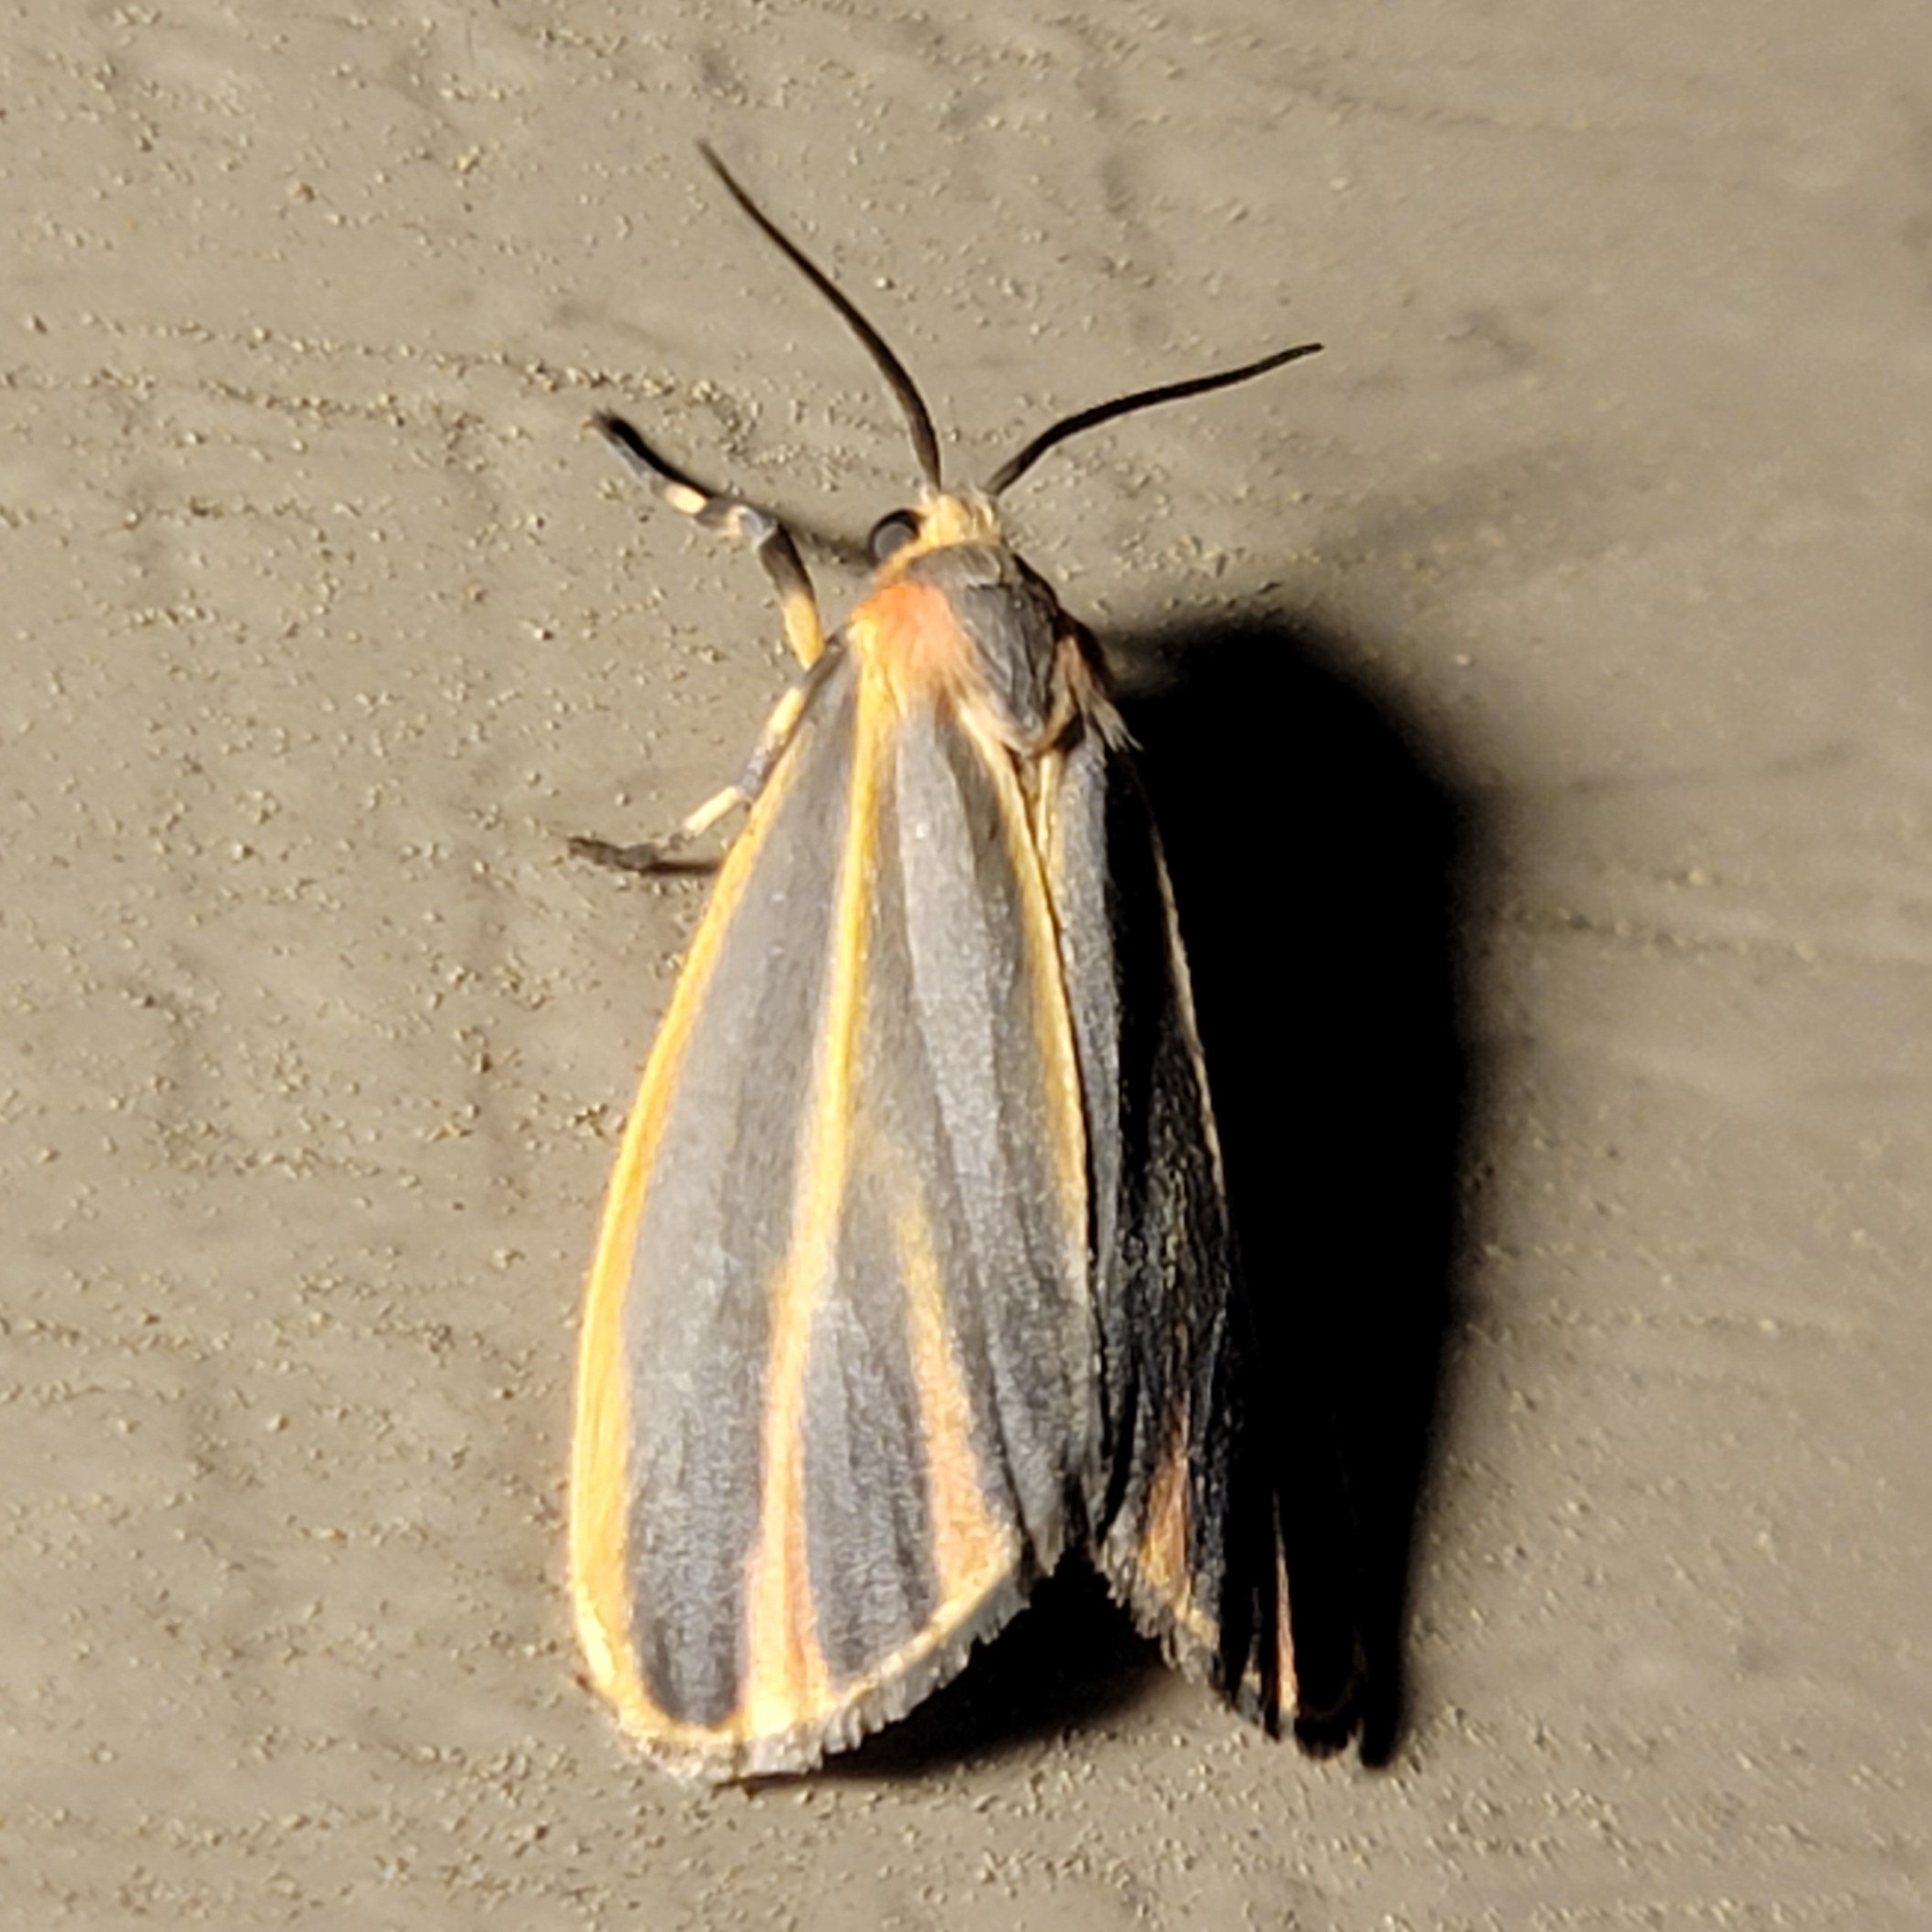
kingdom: Animalia
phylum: Arthropoda
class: Insecta
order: Lepidoptera
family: Erebidae
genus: Hypoprepia
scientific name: Hypoprepia fucosa
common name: Painted lichen moth
